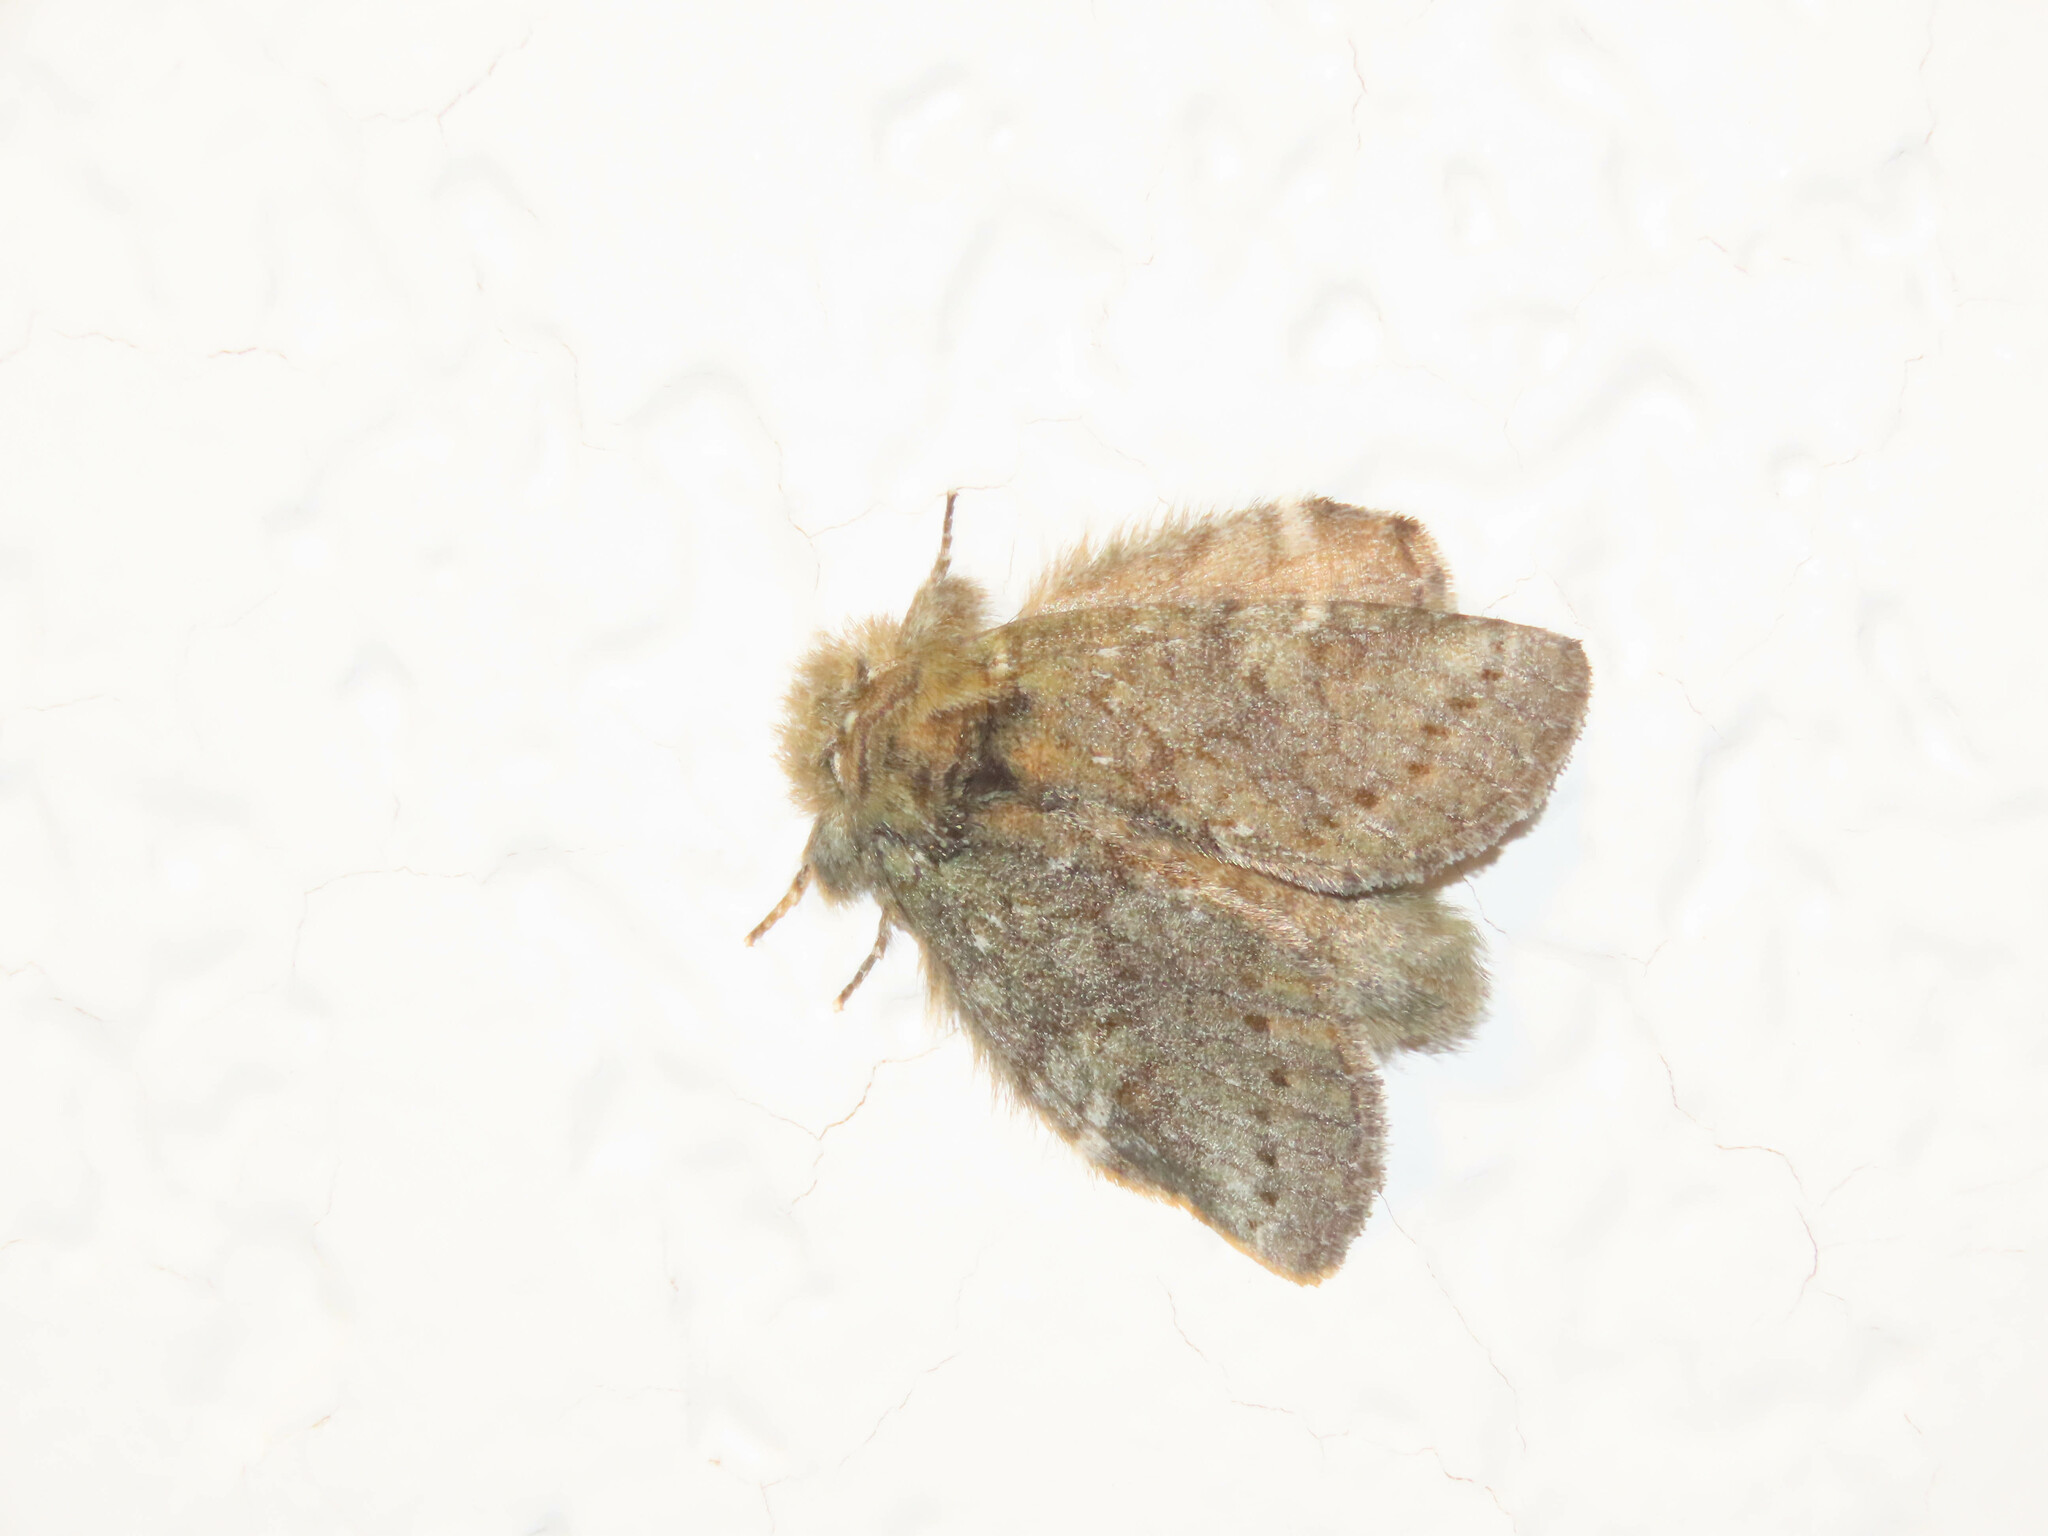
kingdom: Animalia
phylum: Arthropoda
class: Insecta
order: Lepidoptera
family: Notodontidae
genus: Disphragis
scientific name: Disphragis Cecrita guttivitta
